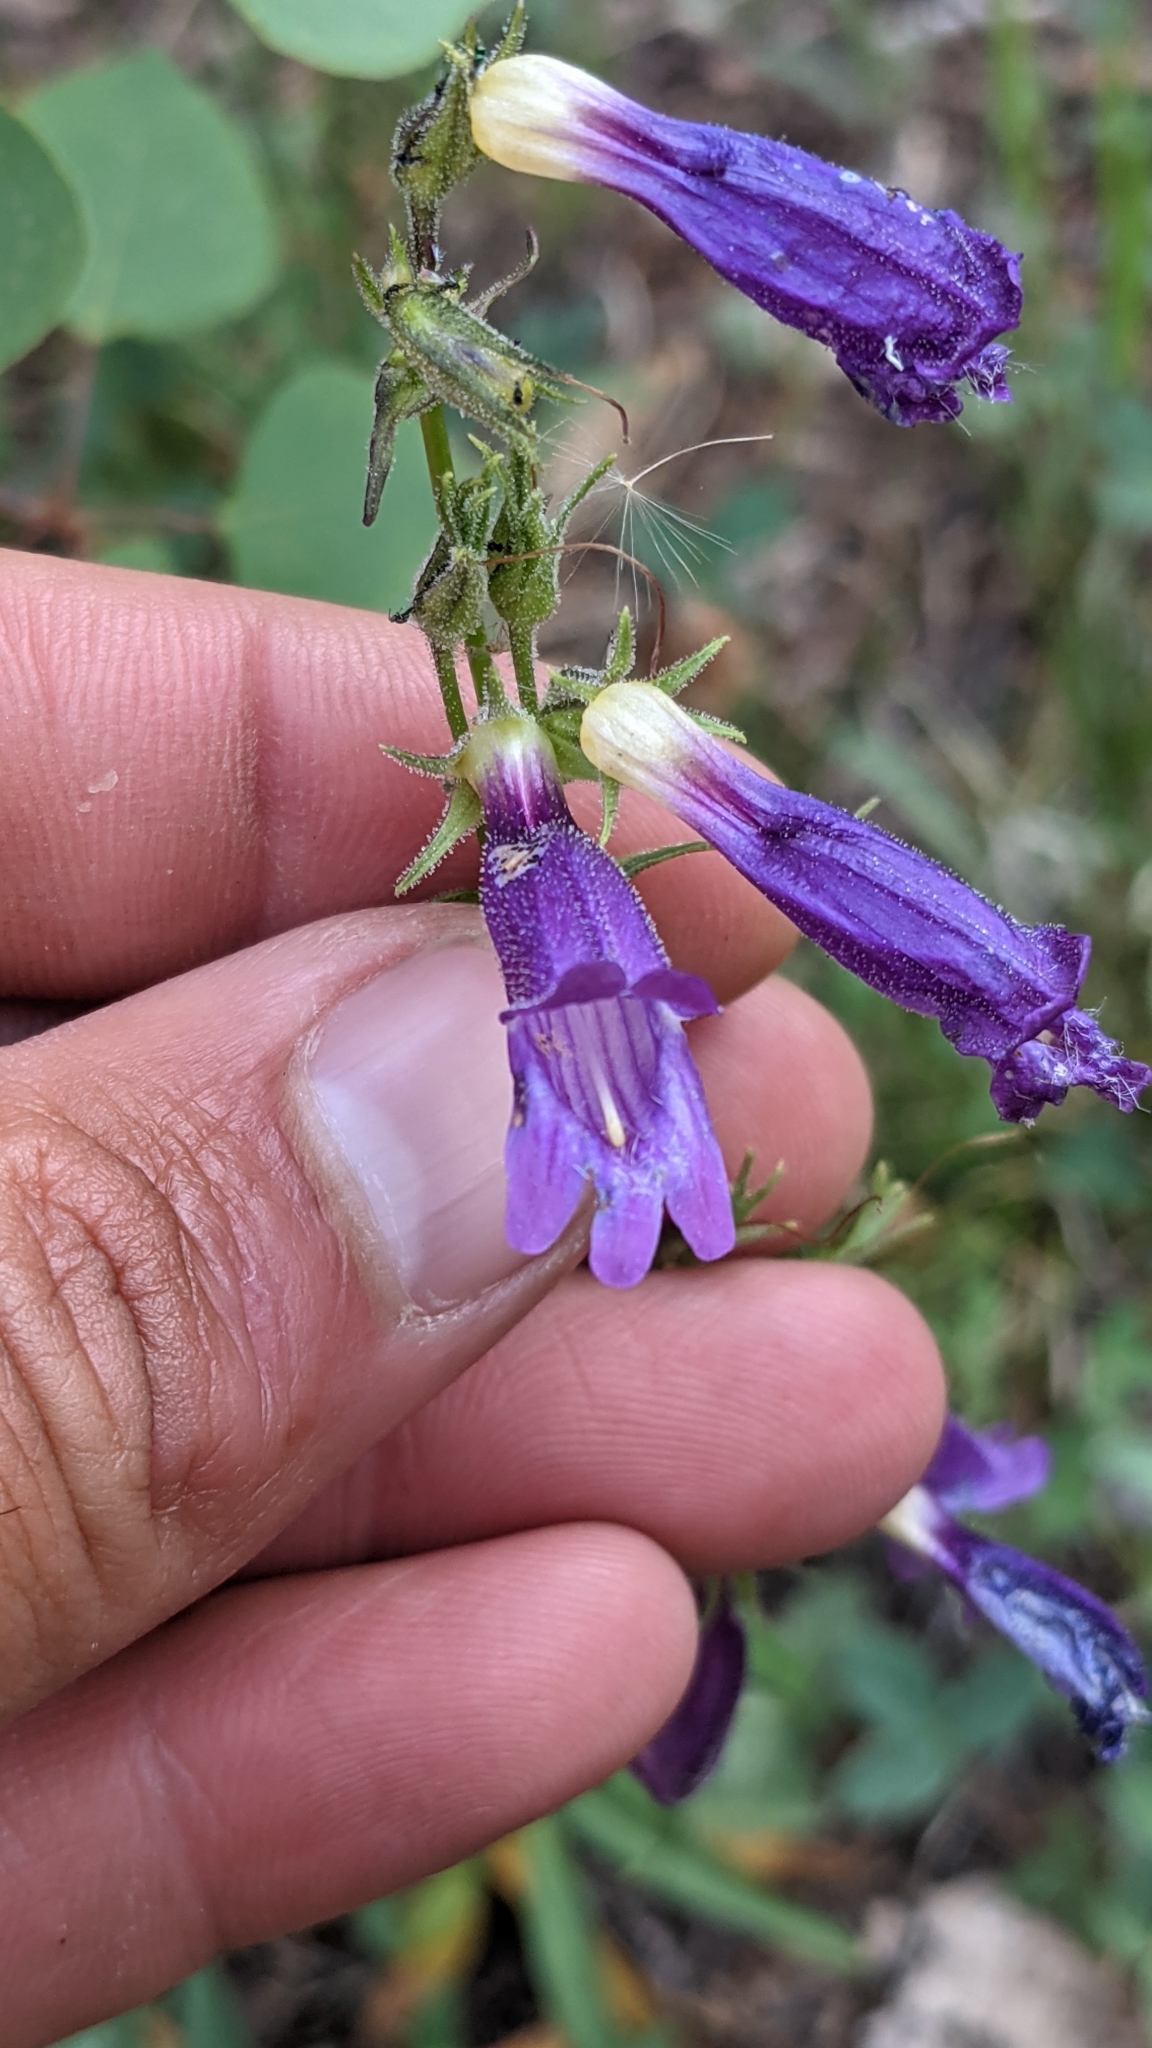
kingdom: Plantae
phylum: Tracheophyta
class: Magnoliopsida
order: Lamiales
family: Plantaginaceae
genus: Penstemon
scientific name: Penstemon whippleanus
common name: Whipple's penstemon
